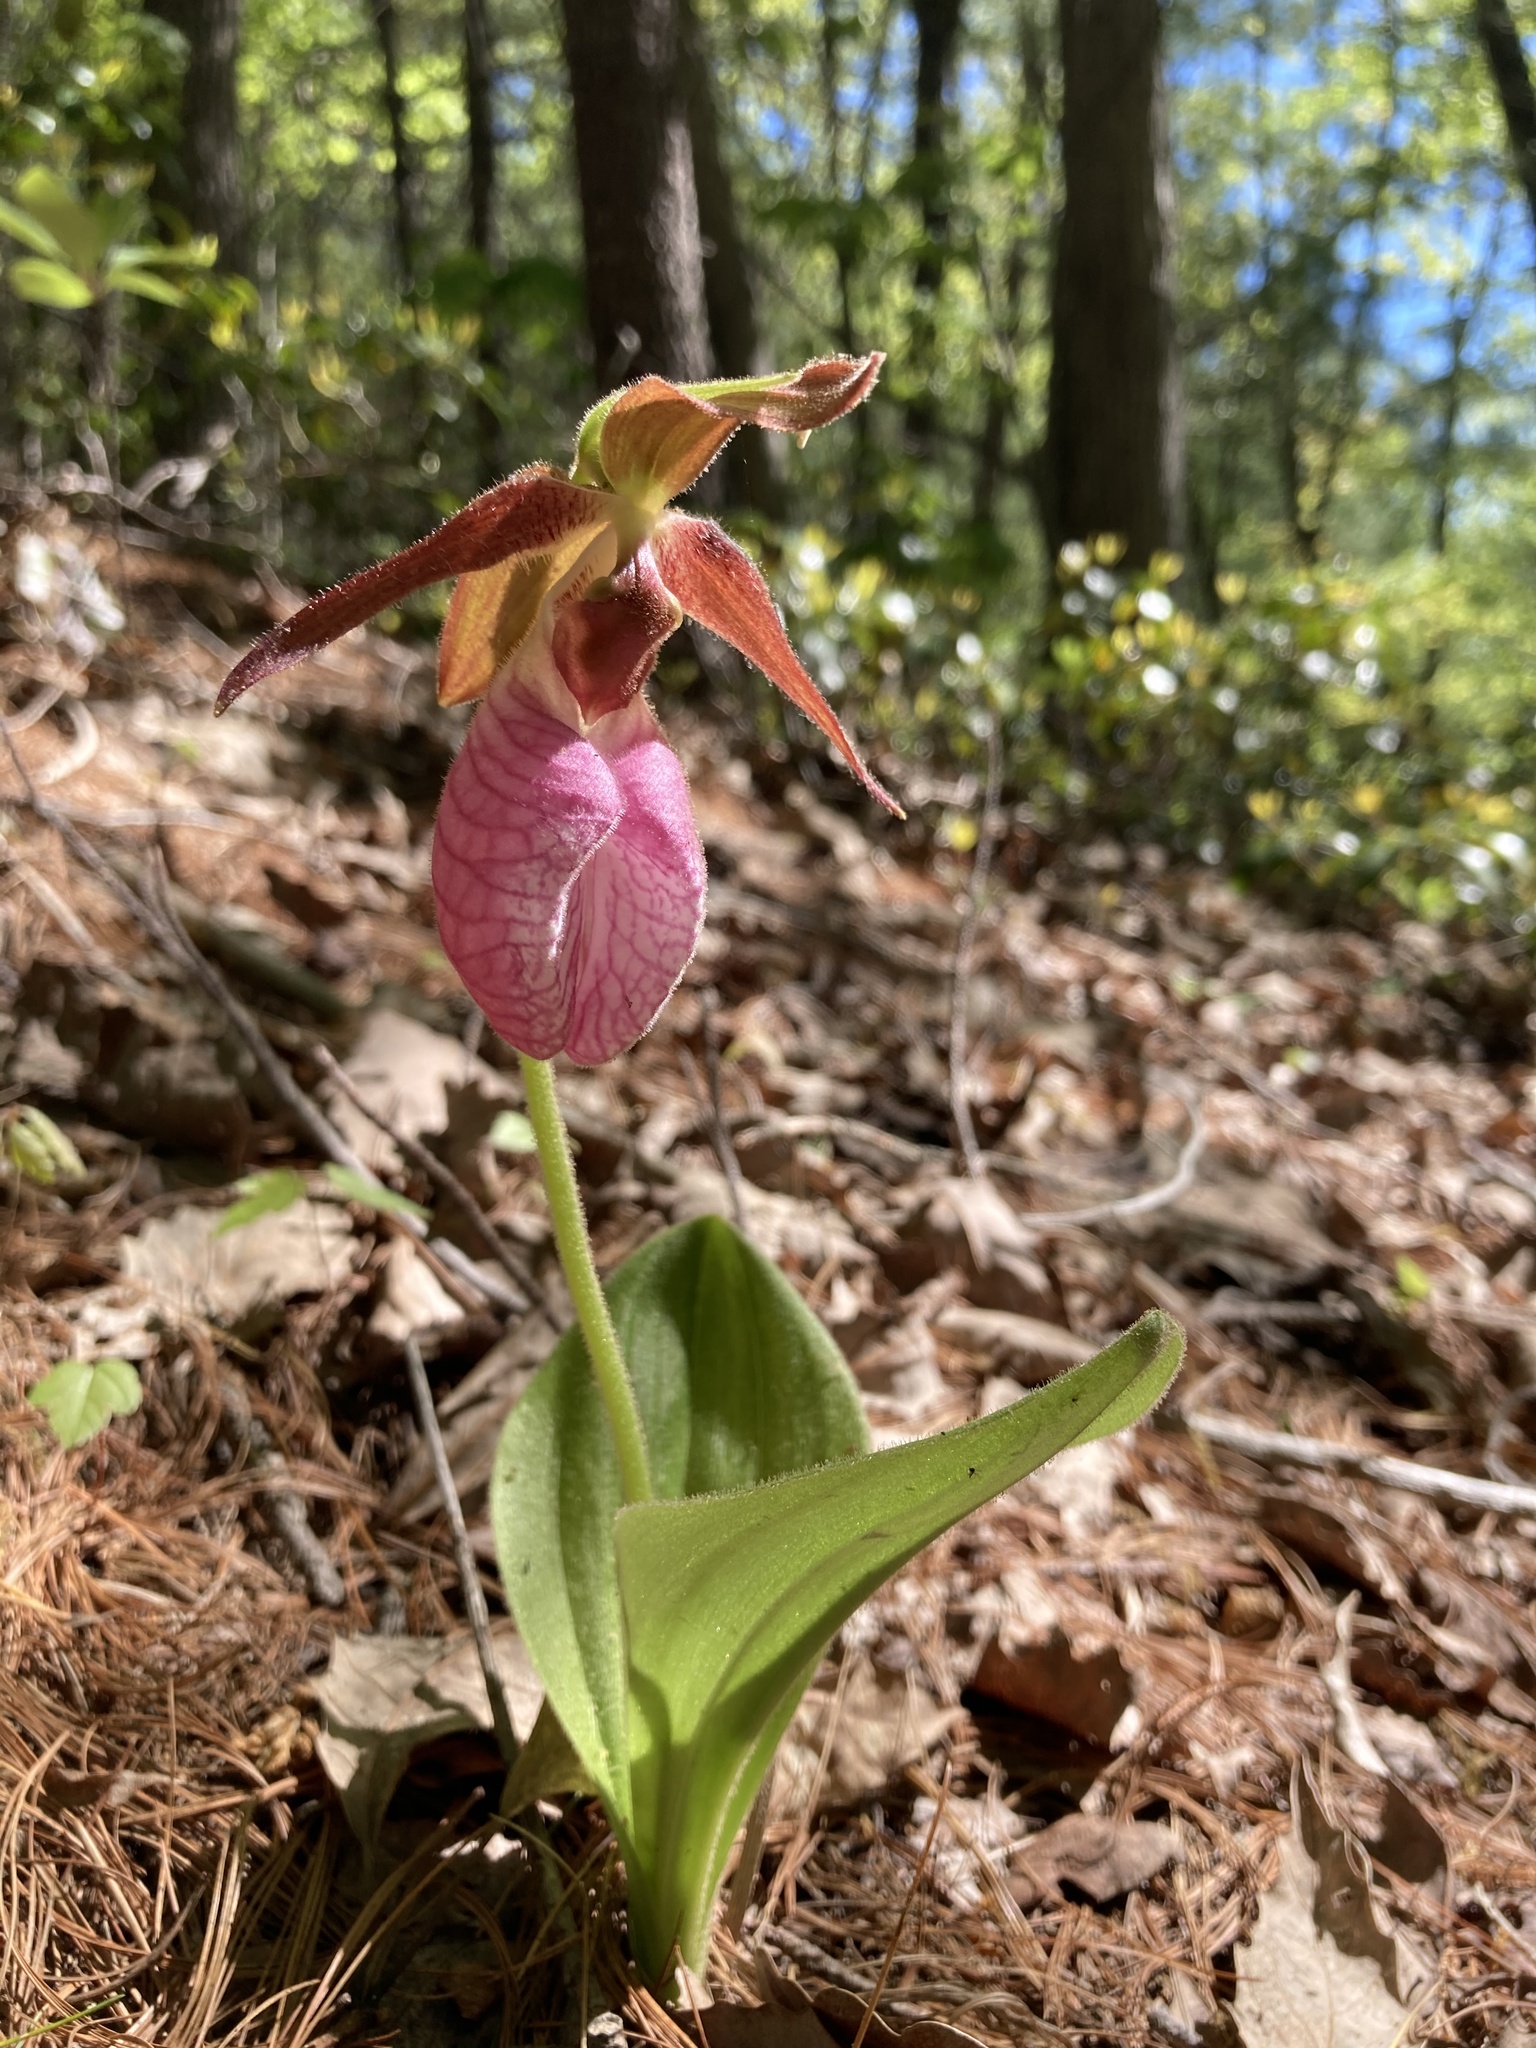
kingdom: Plantae
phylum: Tracheophyta
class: Liliopsida
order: Asparagales
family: Orchidaceae
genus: Cypripedium
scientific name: Cypripedium acaule
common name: Pink lady's-slipper
